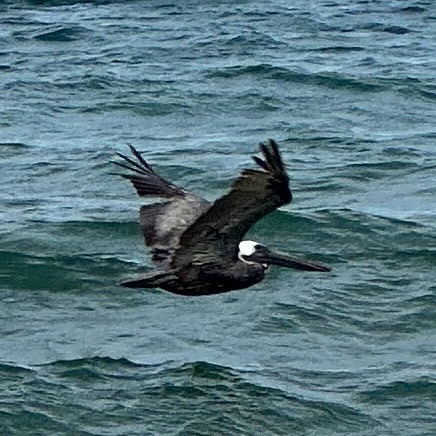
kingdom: Animalia
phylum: Chordata
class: Aves
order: Pelecaniformes
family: Pelecanidae
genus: Pelecanus
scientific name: Pelecanus occidentalis
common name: Brown pelican
